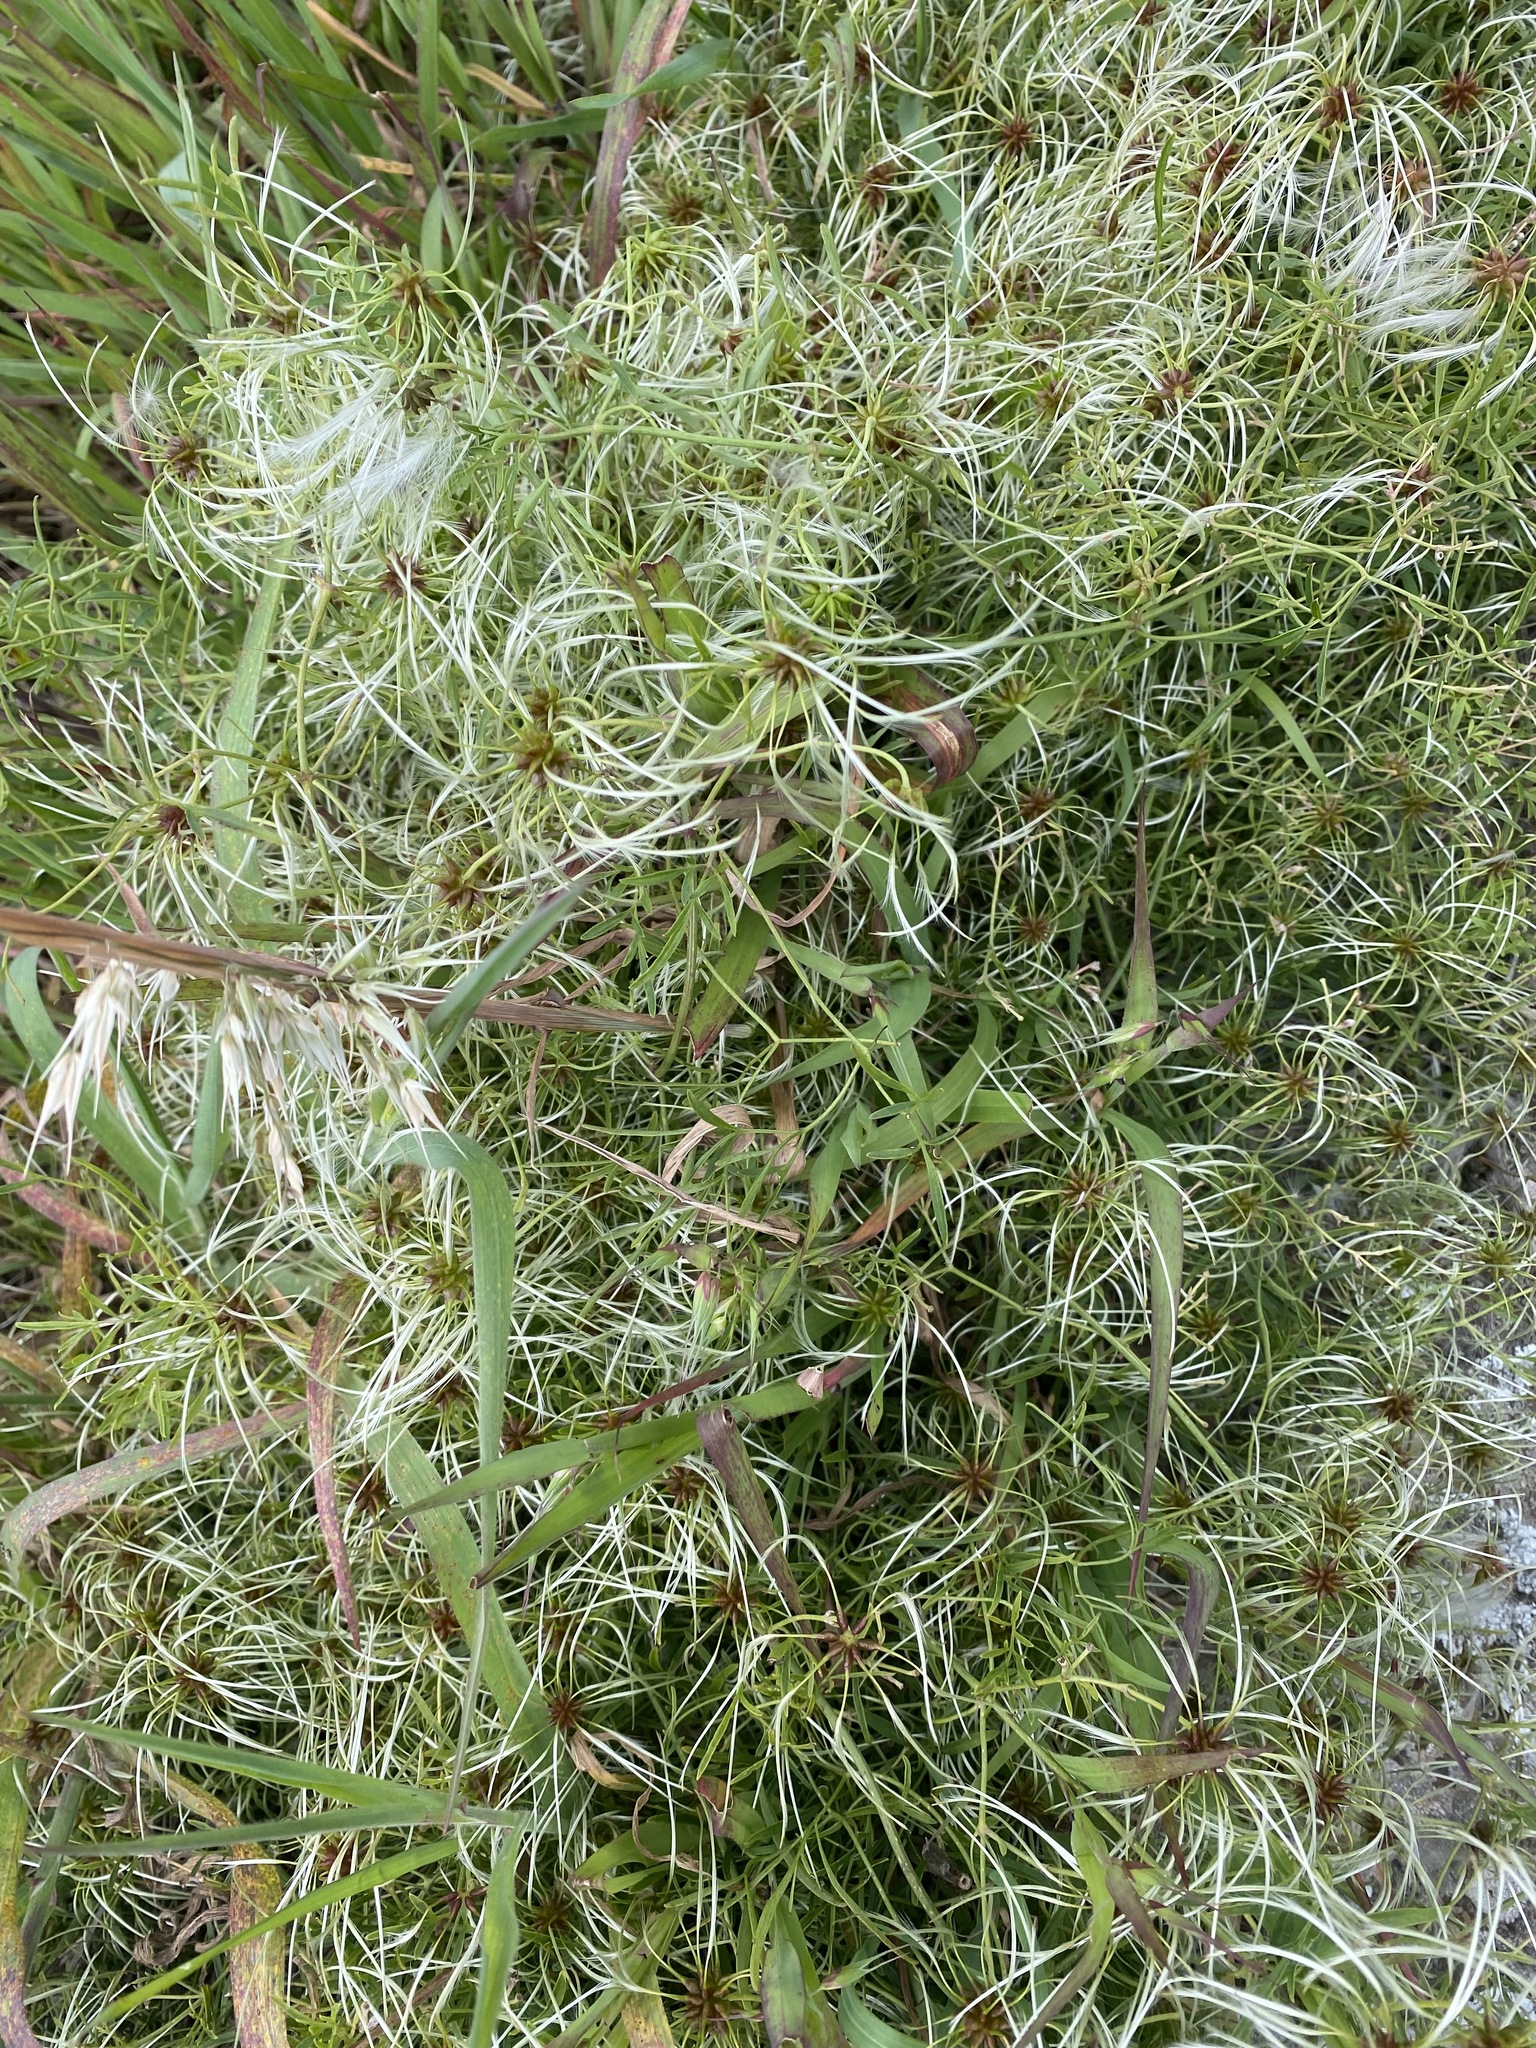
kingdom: Plantae
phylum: Tracheophyta
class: Magnoliopsida
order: Ranunculales
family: Ranunculaceae
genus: Clematis
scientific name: Clematis microphylla
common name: Headachevine
